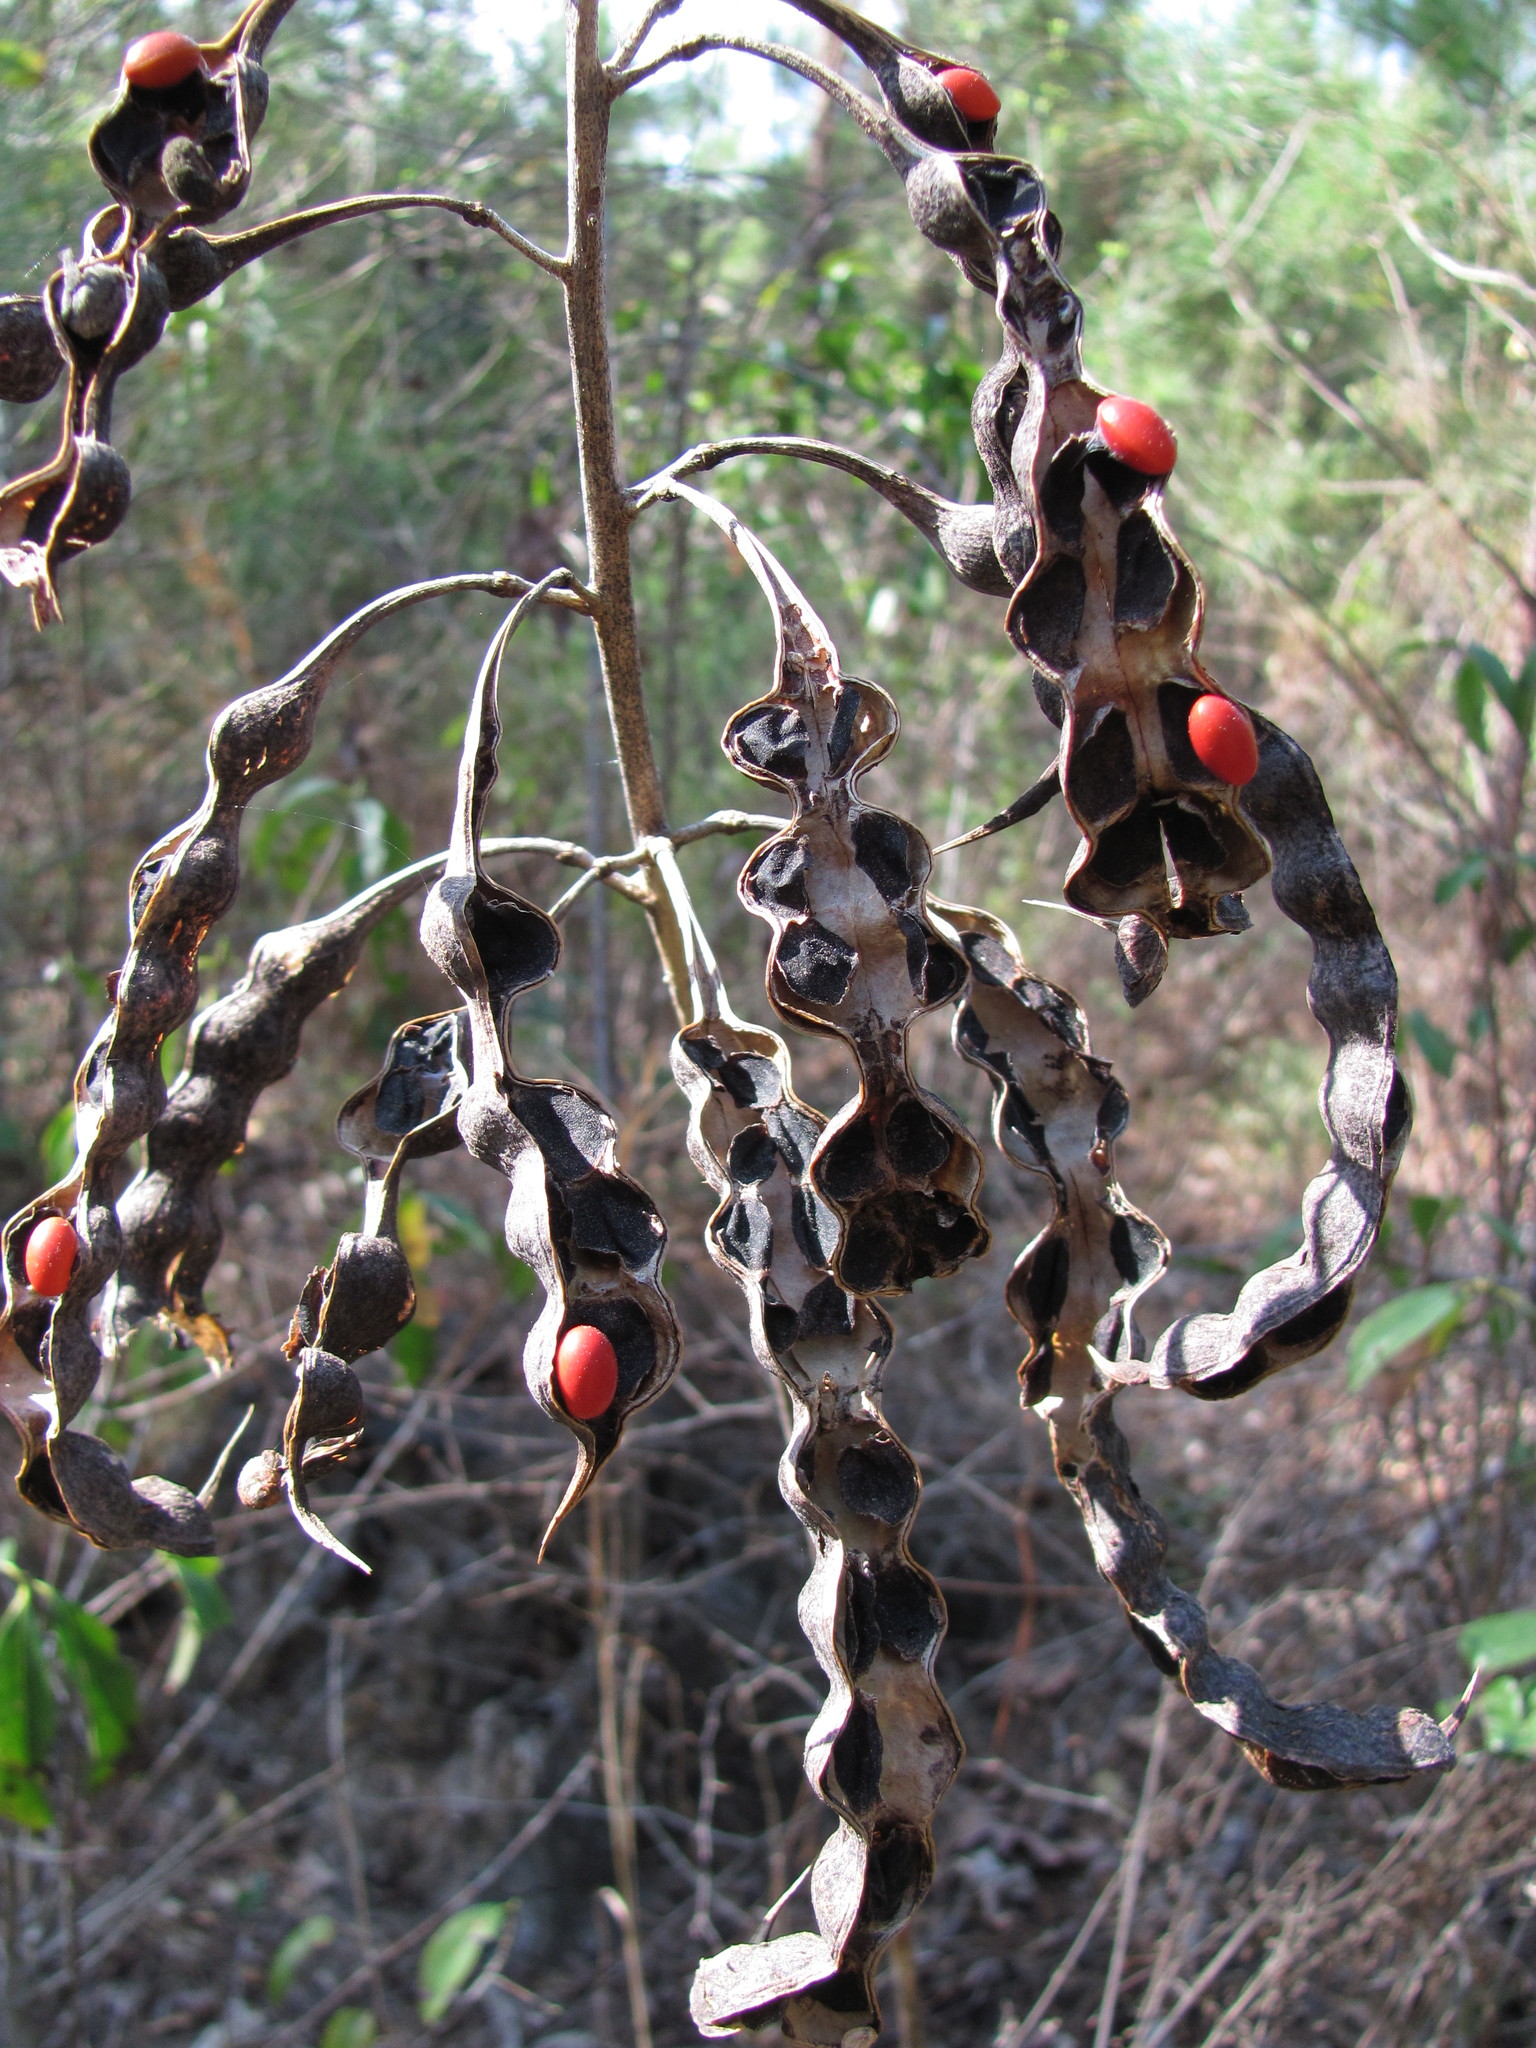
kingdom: Plantae
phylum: Tracheophyta
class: Magnoliopsida
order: Fabales
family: Fabaceae
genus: Erythrina
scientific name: Erythrina herbacea
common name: Coral-bean
